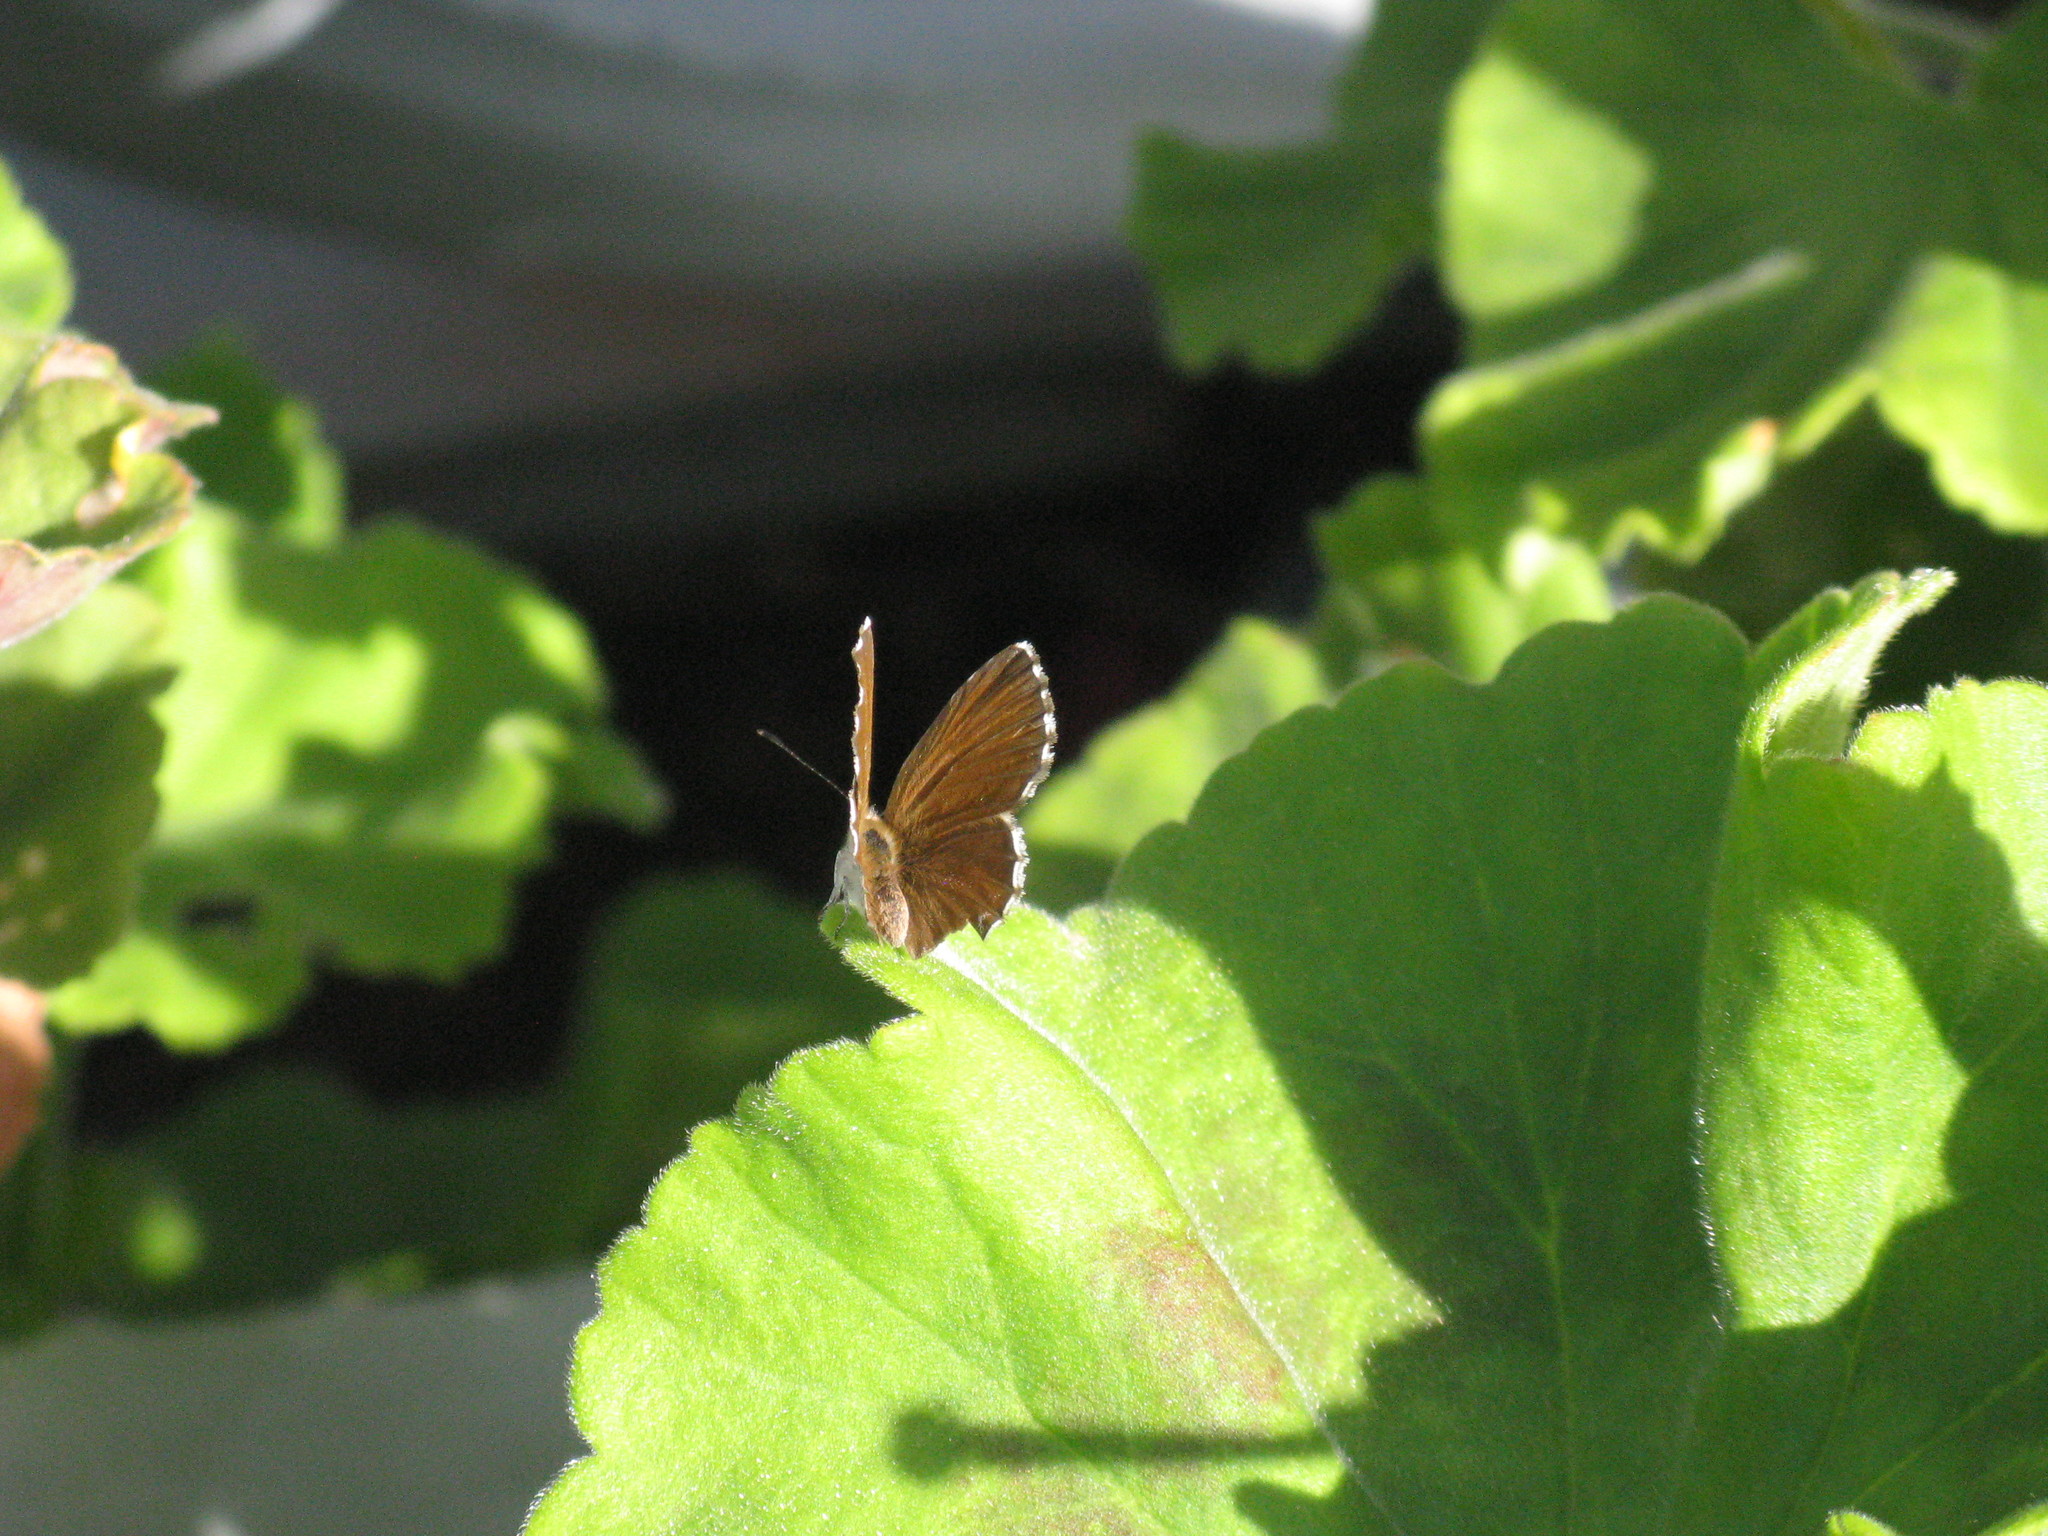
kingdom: Animalia
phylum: Arthropoda
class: Insecta
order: Lepidoptera
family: Lycaenidae
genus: Cacyreus
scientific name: Cacyreus marshalli
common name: Geranium bronze
